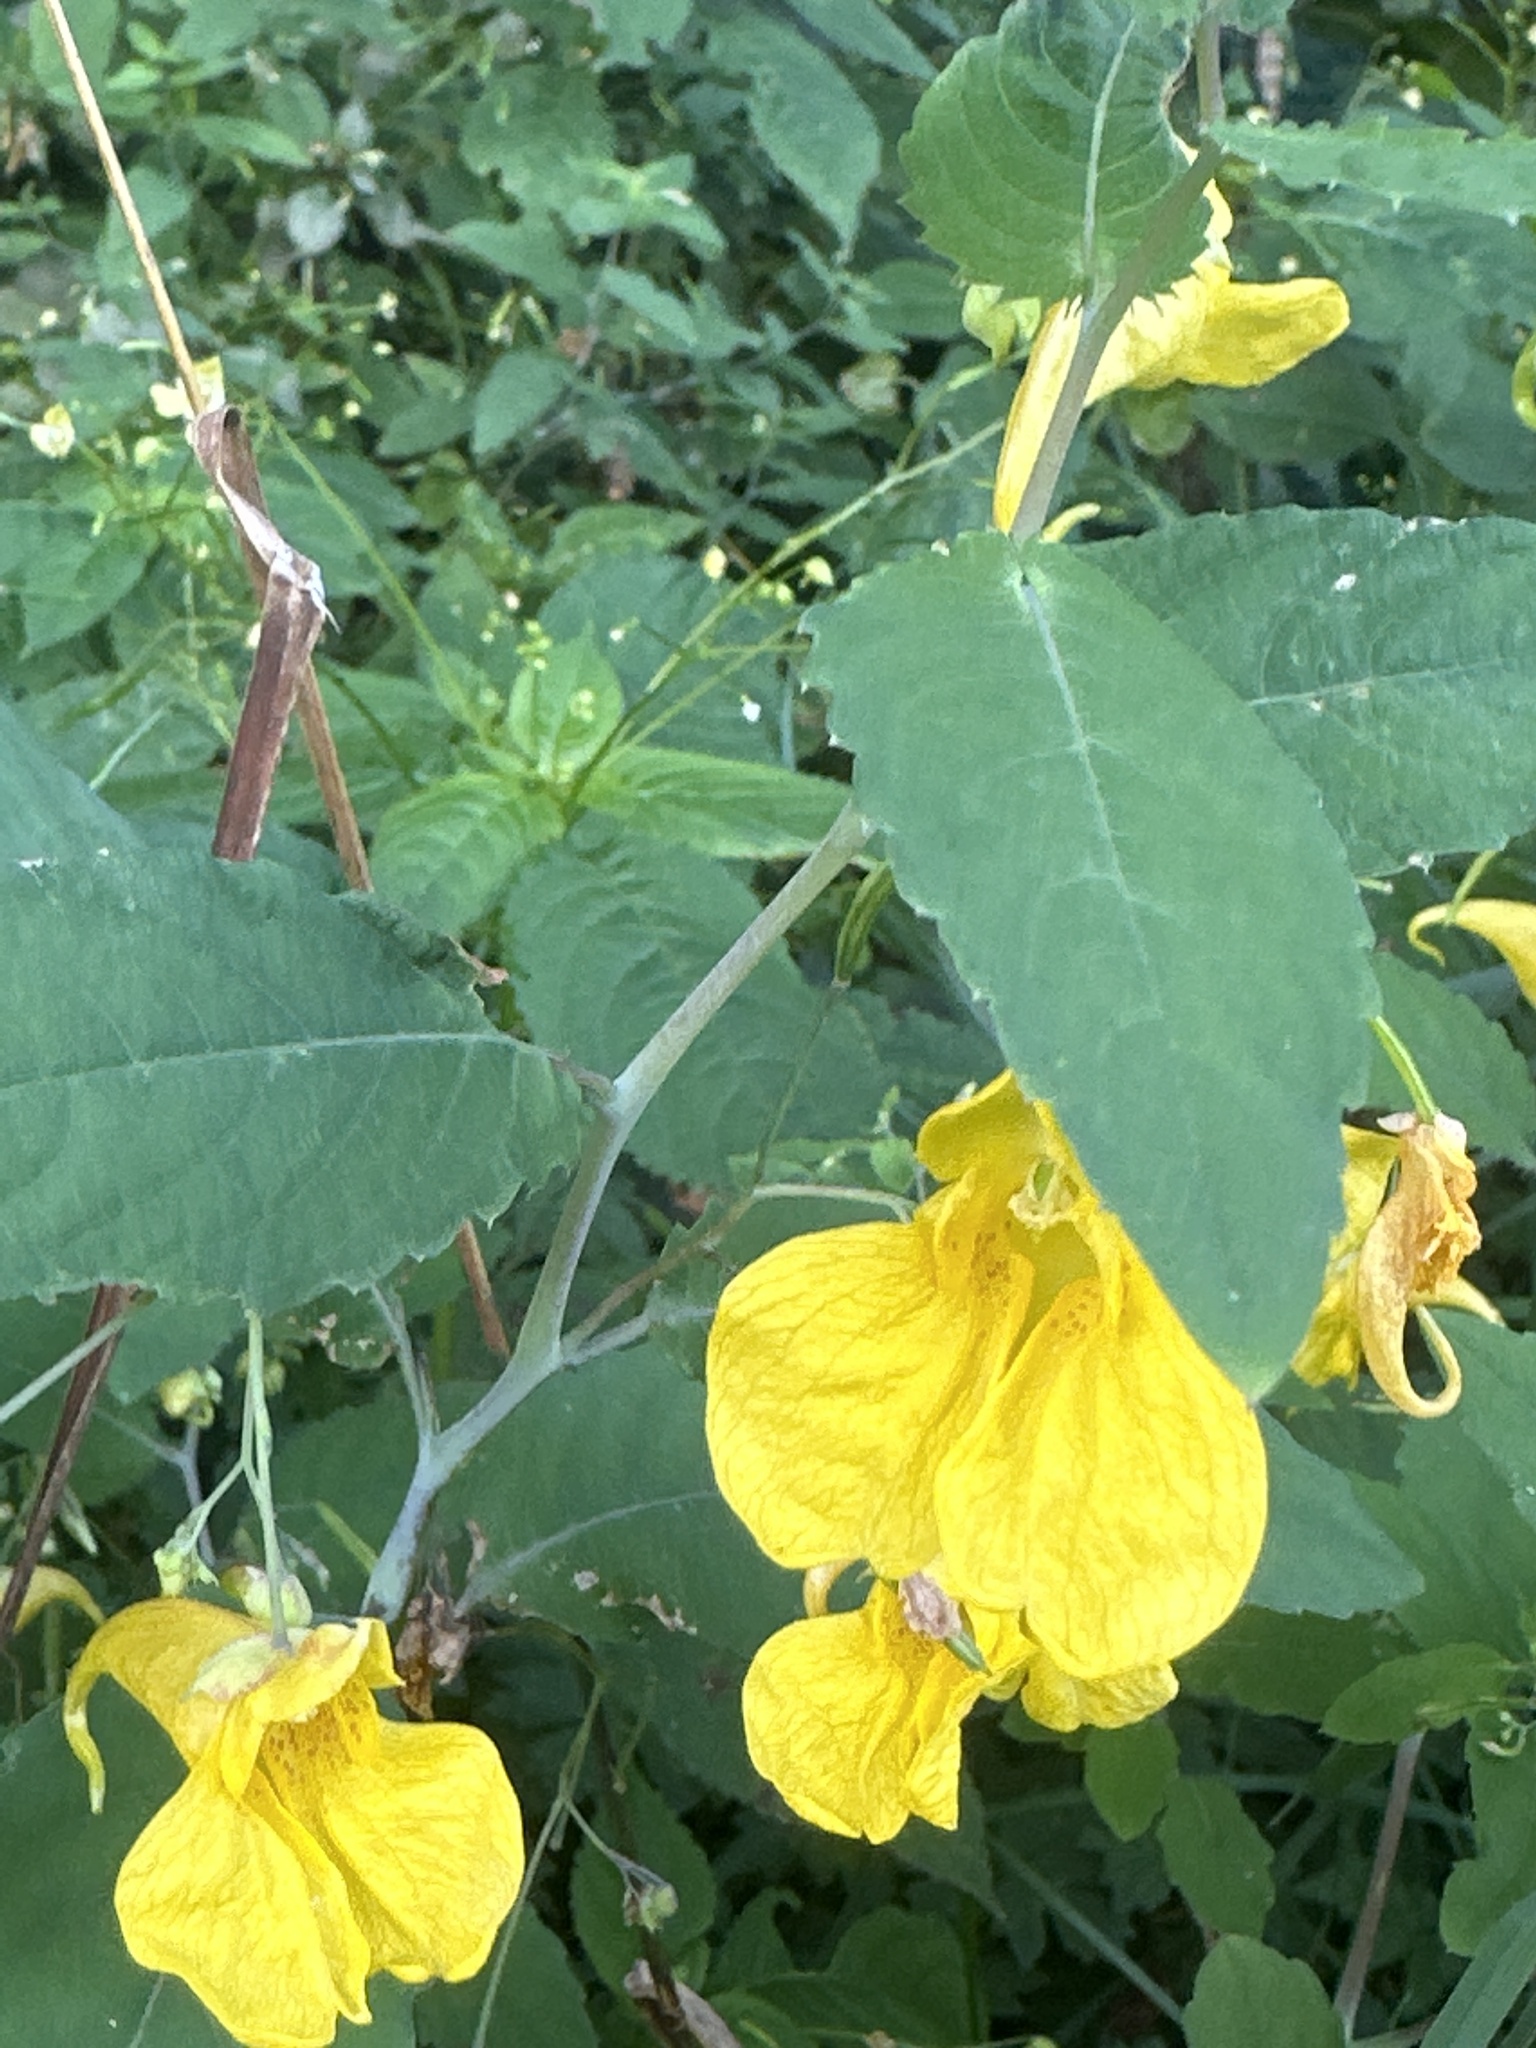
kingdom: Plantae
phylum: Tracheophyta
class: Magnoliopsida
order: Ericales
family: Balsaminaceae
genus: Impatiens
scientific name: Impatiens noli-tangere
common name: Touch-me-not balsam
